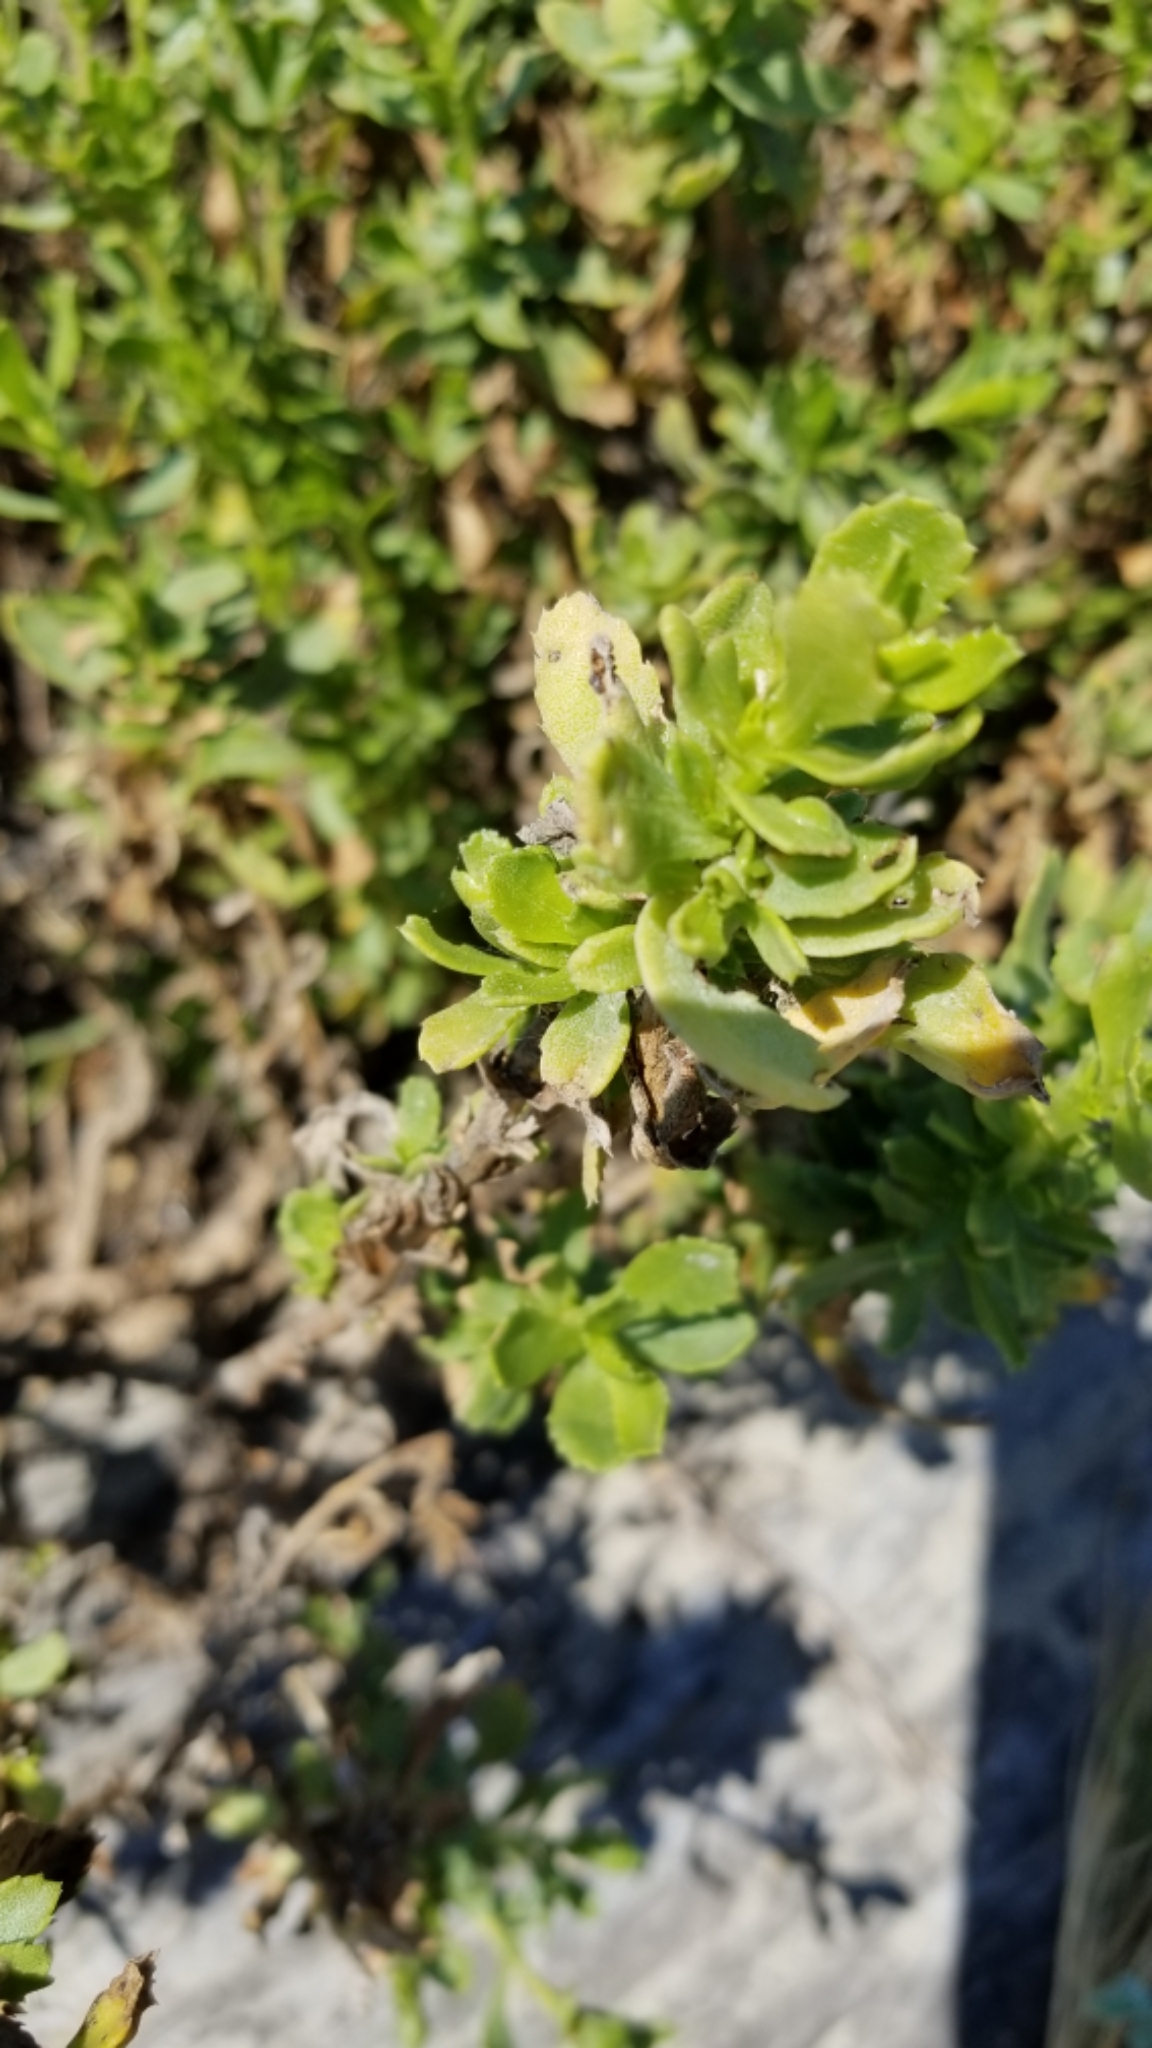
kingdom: Plantae
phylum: Tracheophyta
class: Magnoliopsida
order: Asterales
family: Asteraceae
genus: Isocoma
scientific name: Isocoma menziesii
